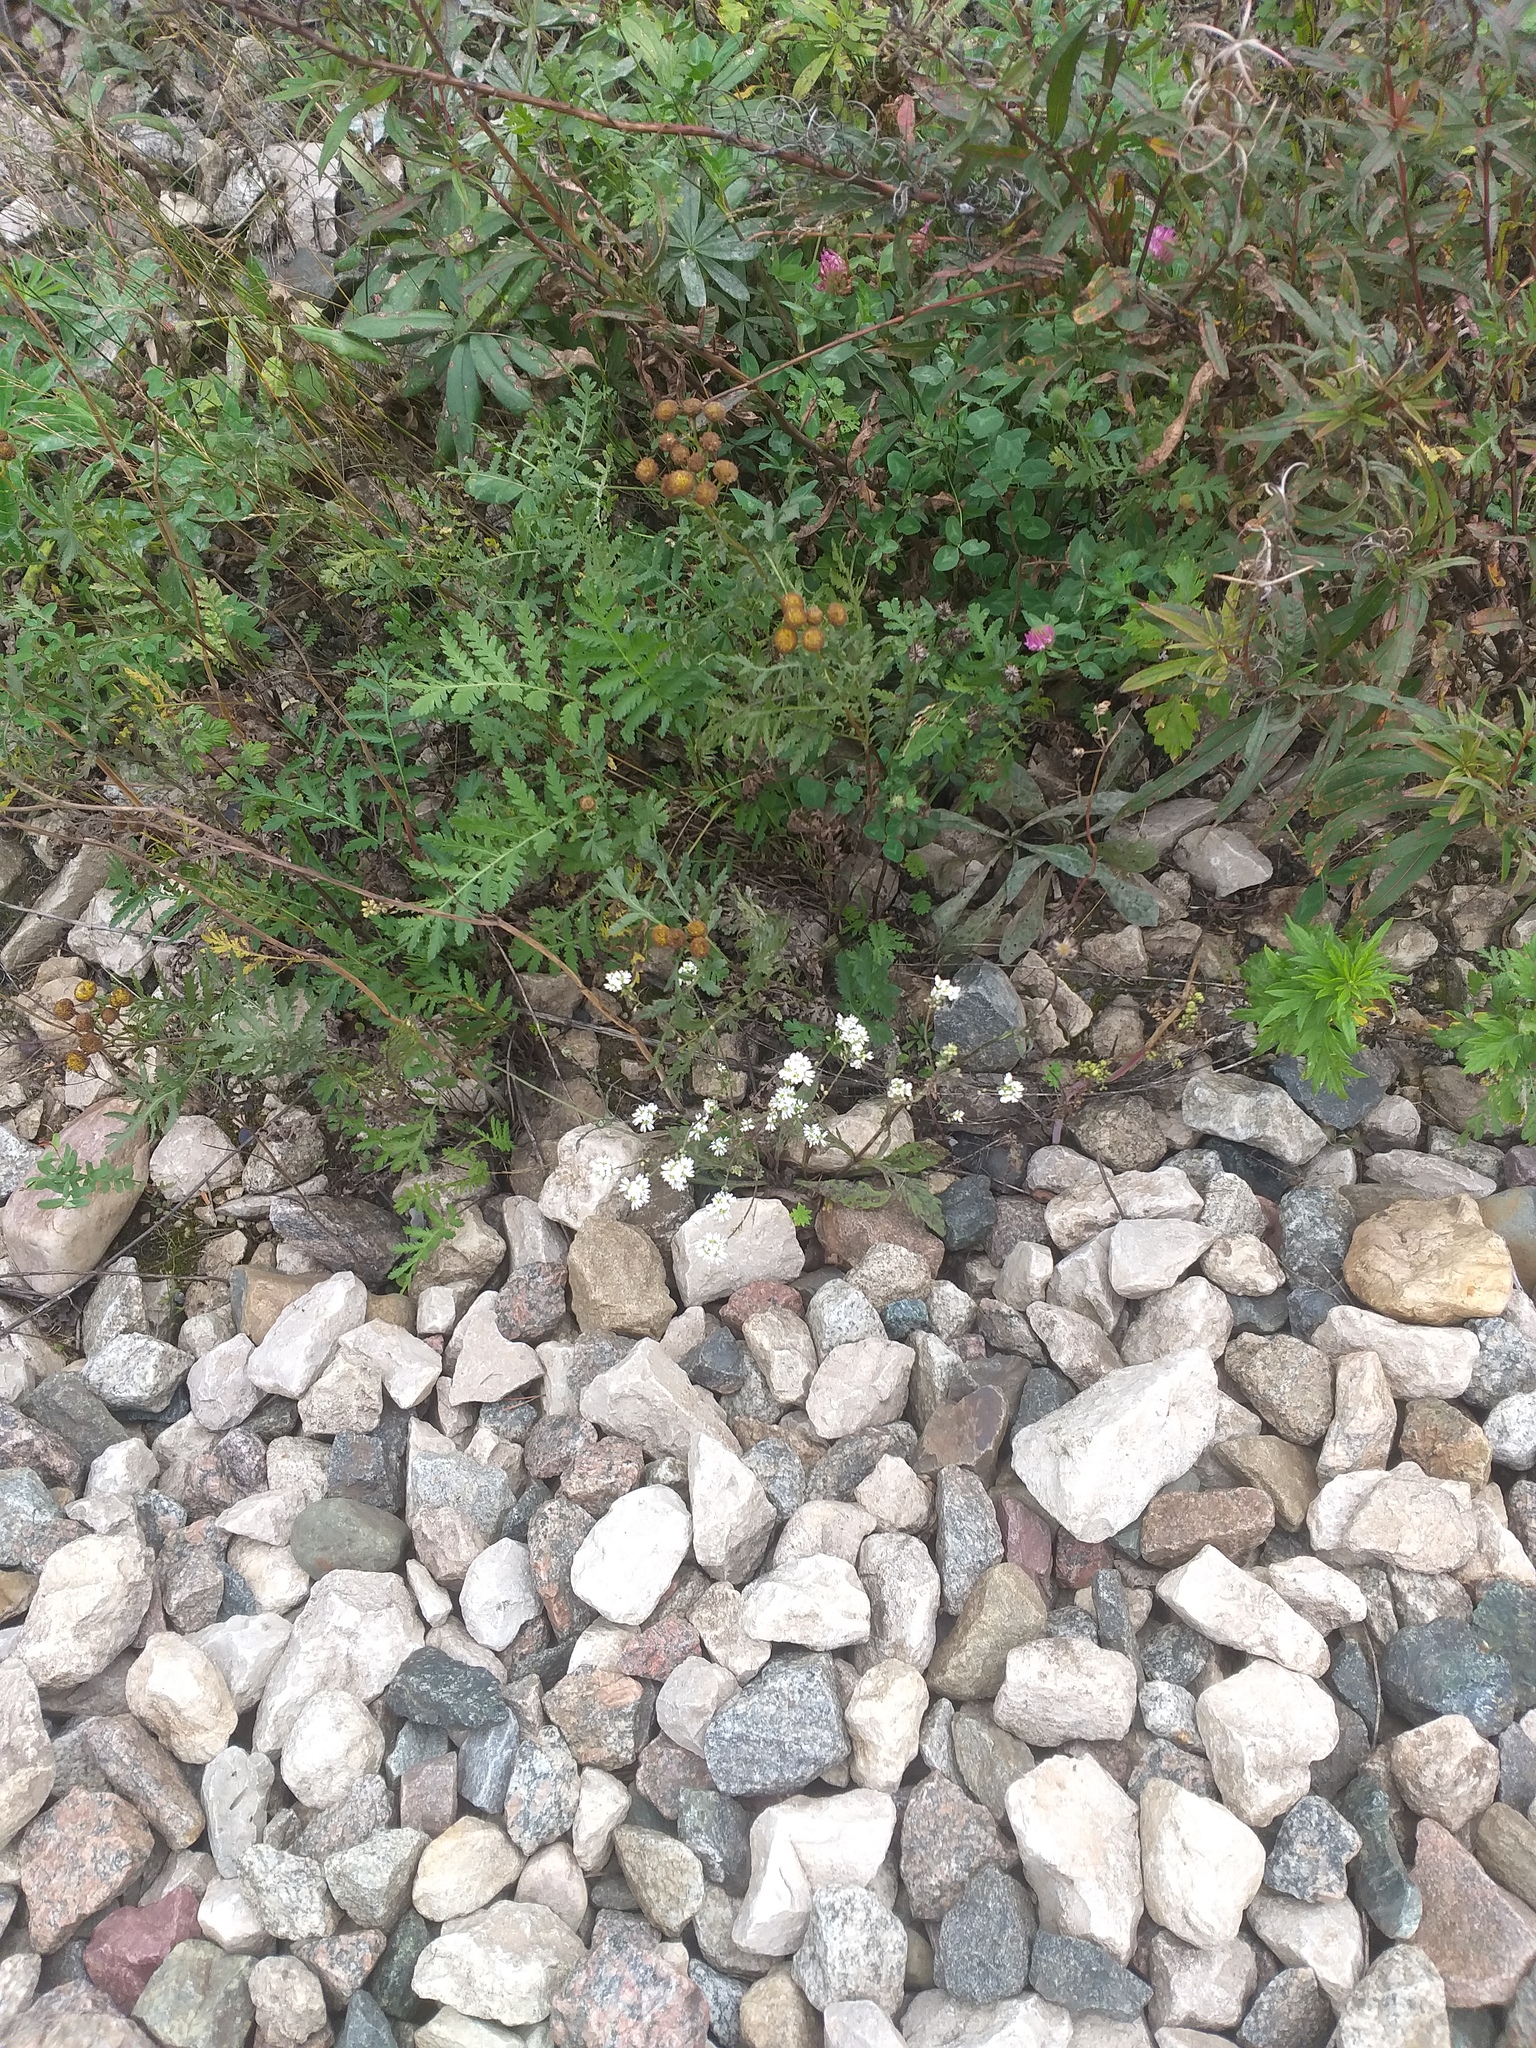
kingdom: Plantae
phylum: Tracheophyta
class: Magnoliopsida
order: Brassicales
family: Brassicaceae
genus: Berteroa
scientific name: Berteroa incana
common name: Hoary alison
